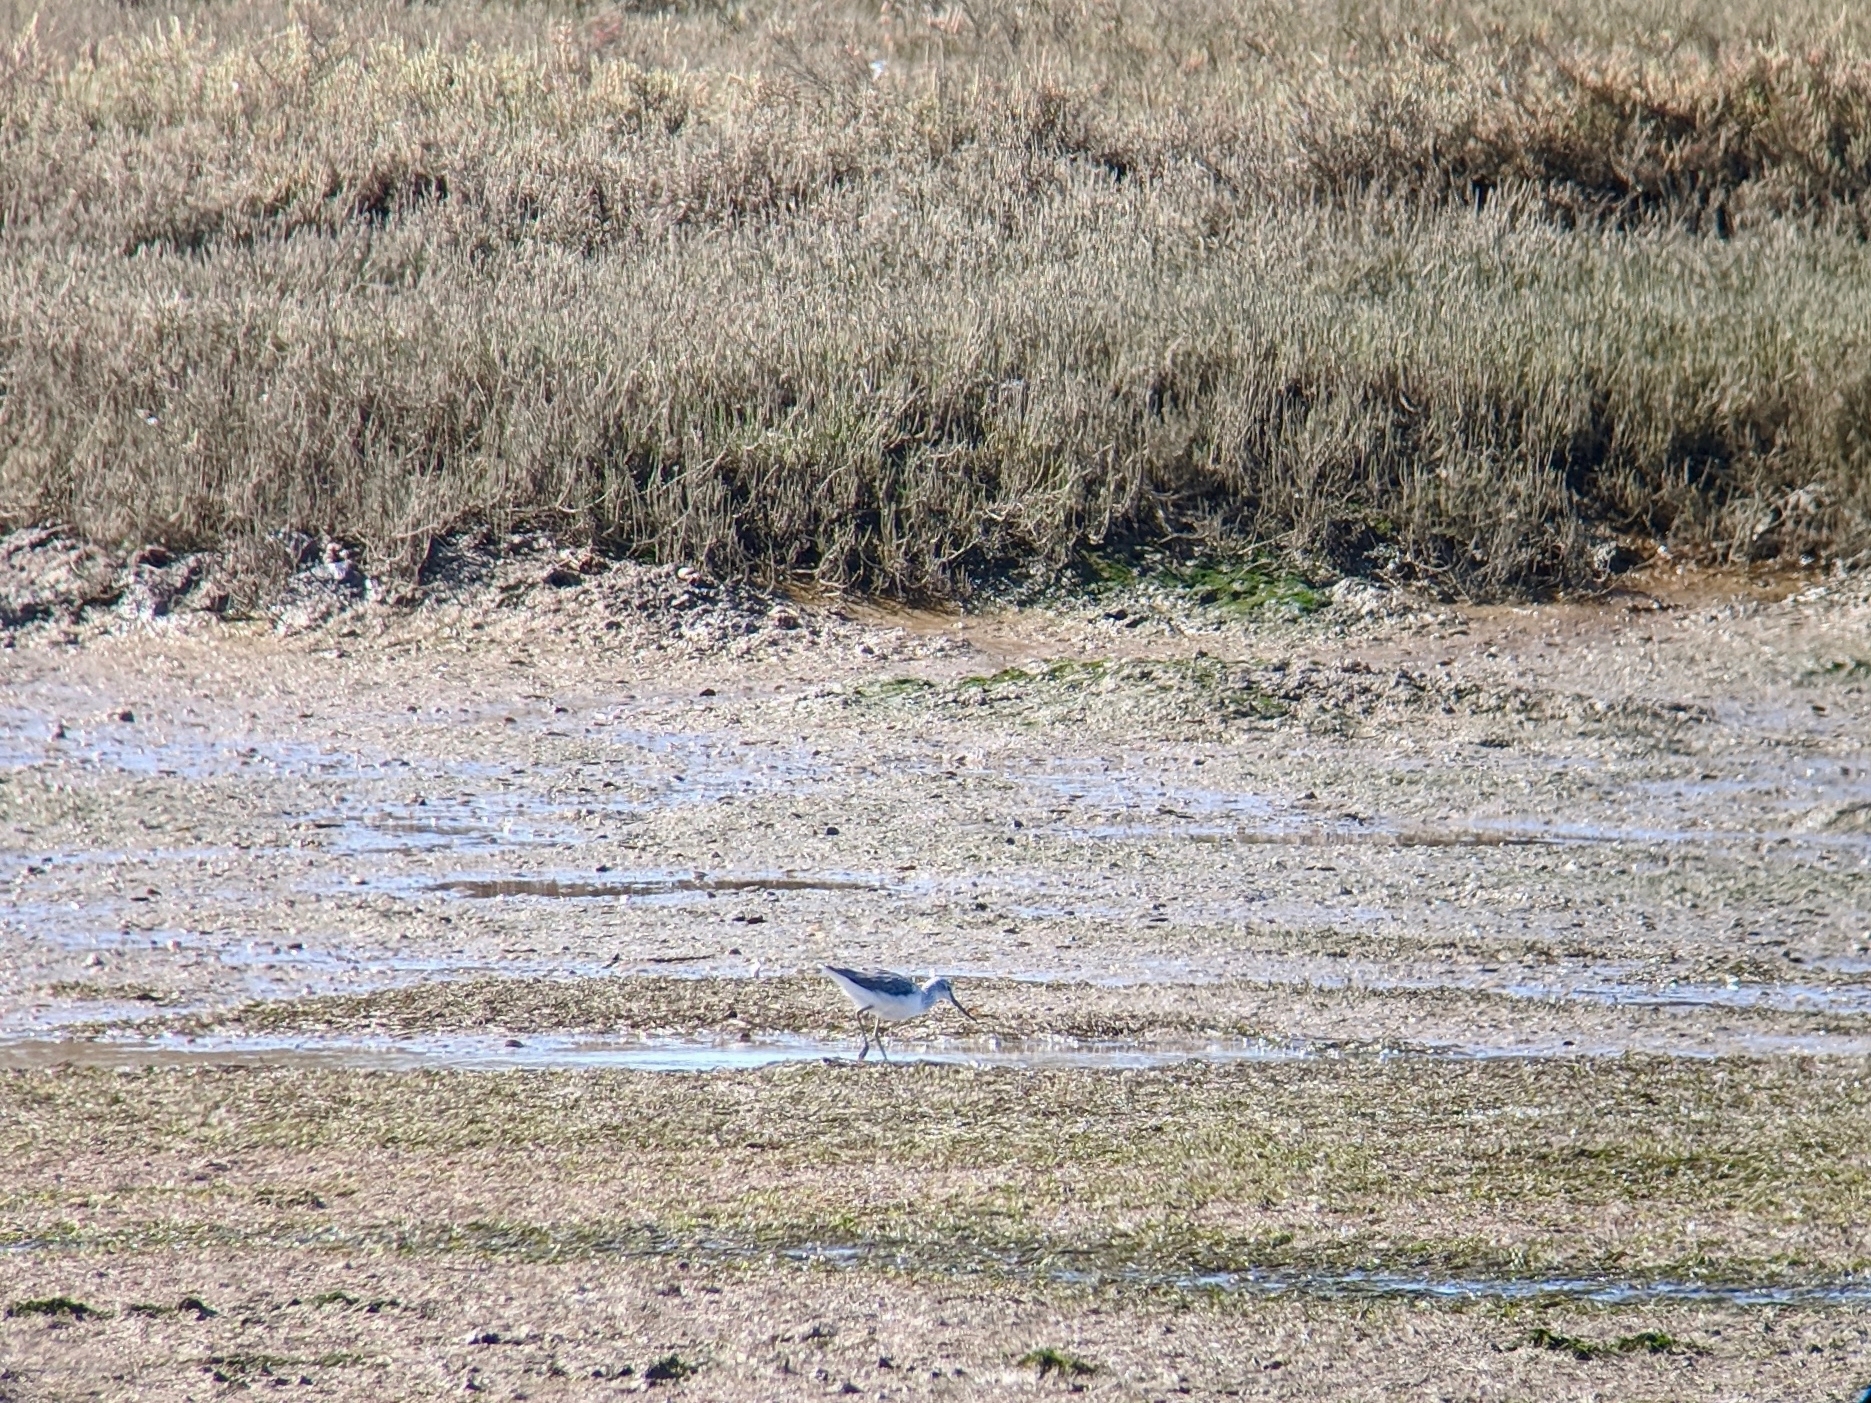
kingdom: Animalia
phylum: Chordata
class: Aves
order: Charadriiformes
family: Scolopacidae
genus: Tringa
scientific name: Tringa nebularia
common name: Common greenshank
